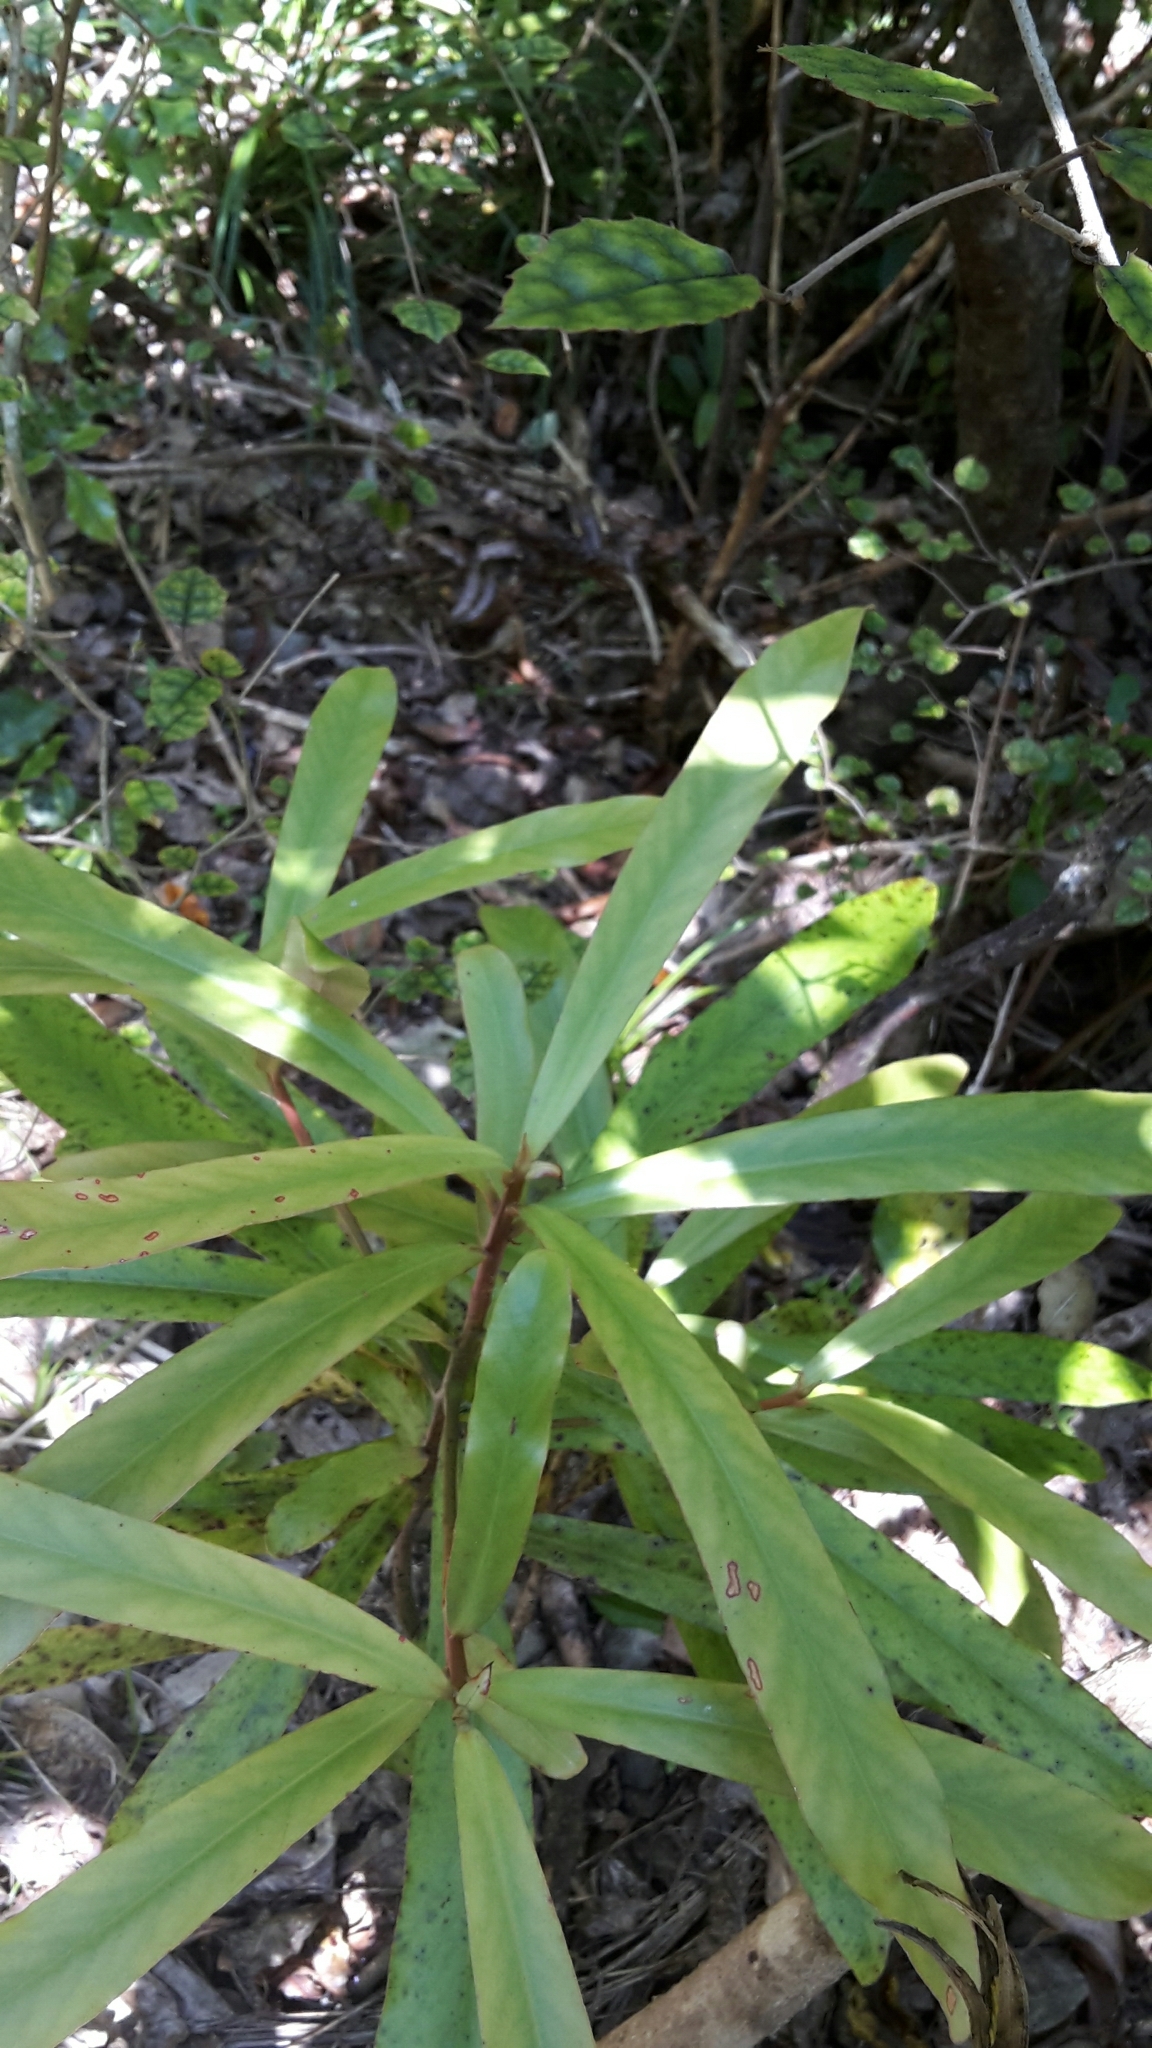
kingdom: Plantae
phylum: Tracheophyta
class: Magnoliopsida
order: Ericales
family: Primulaceae
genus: Myrsine
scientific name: Myrsine salicina
